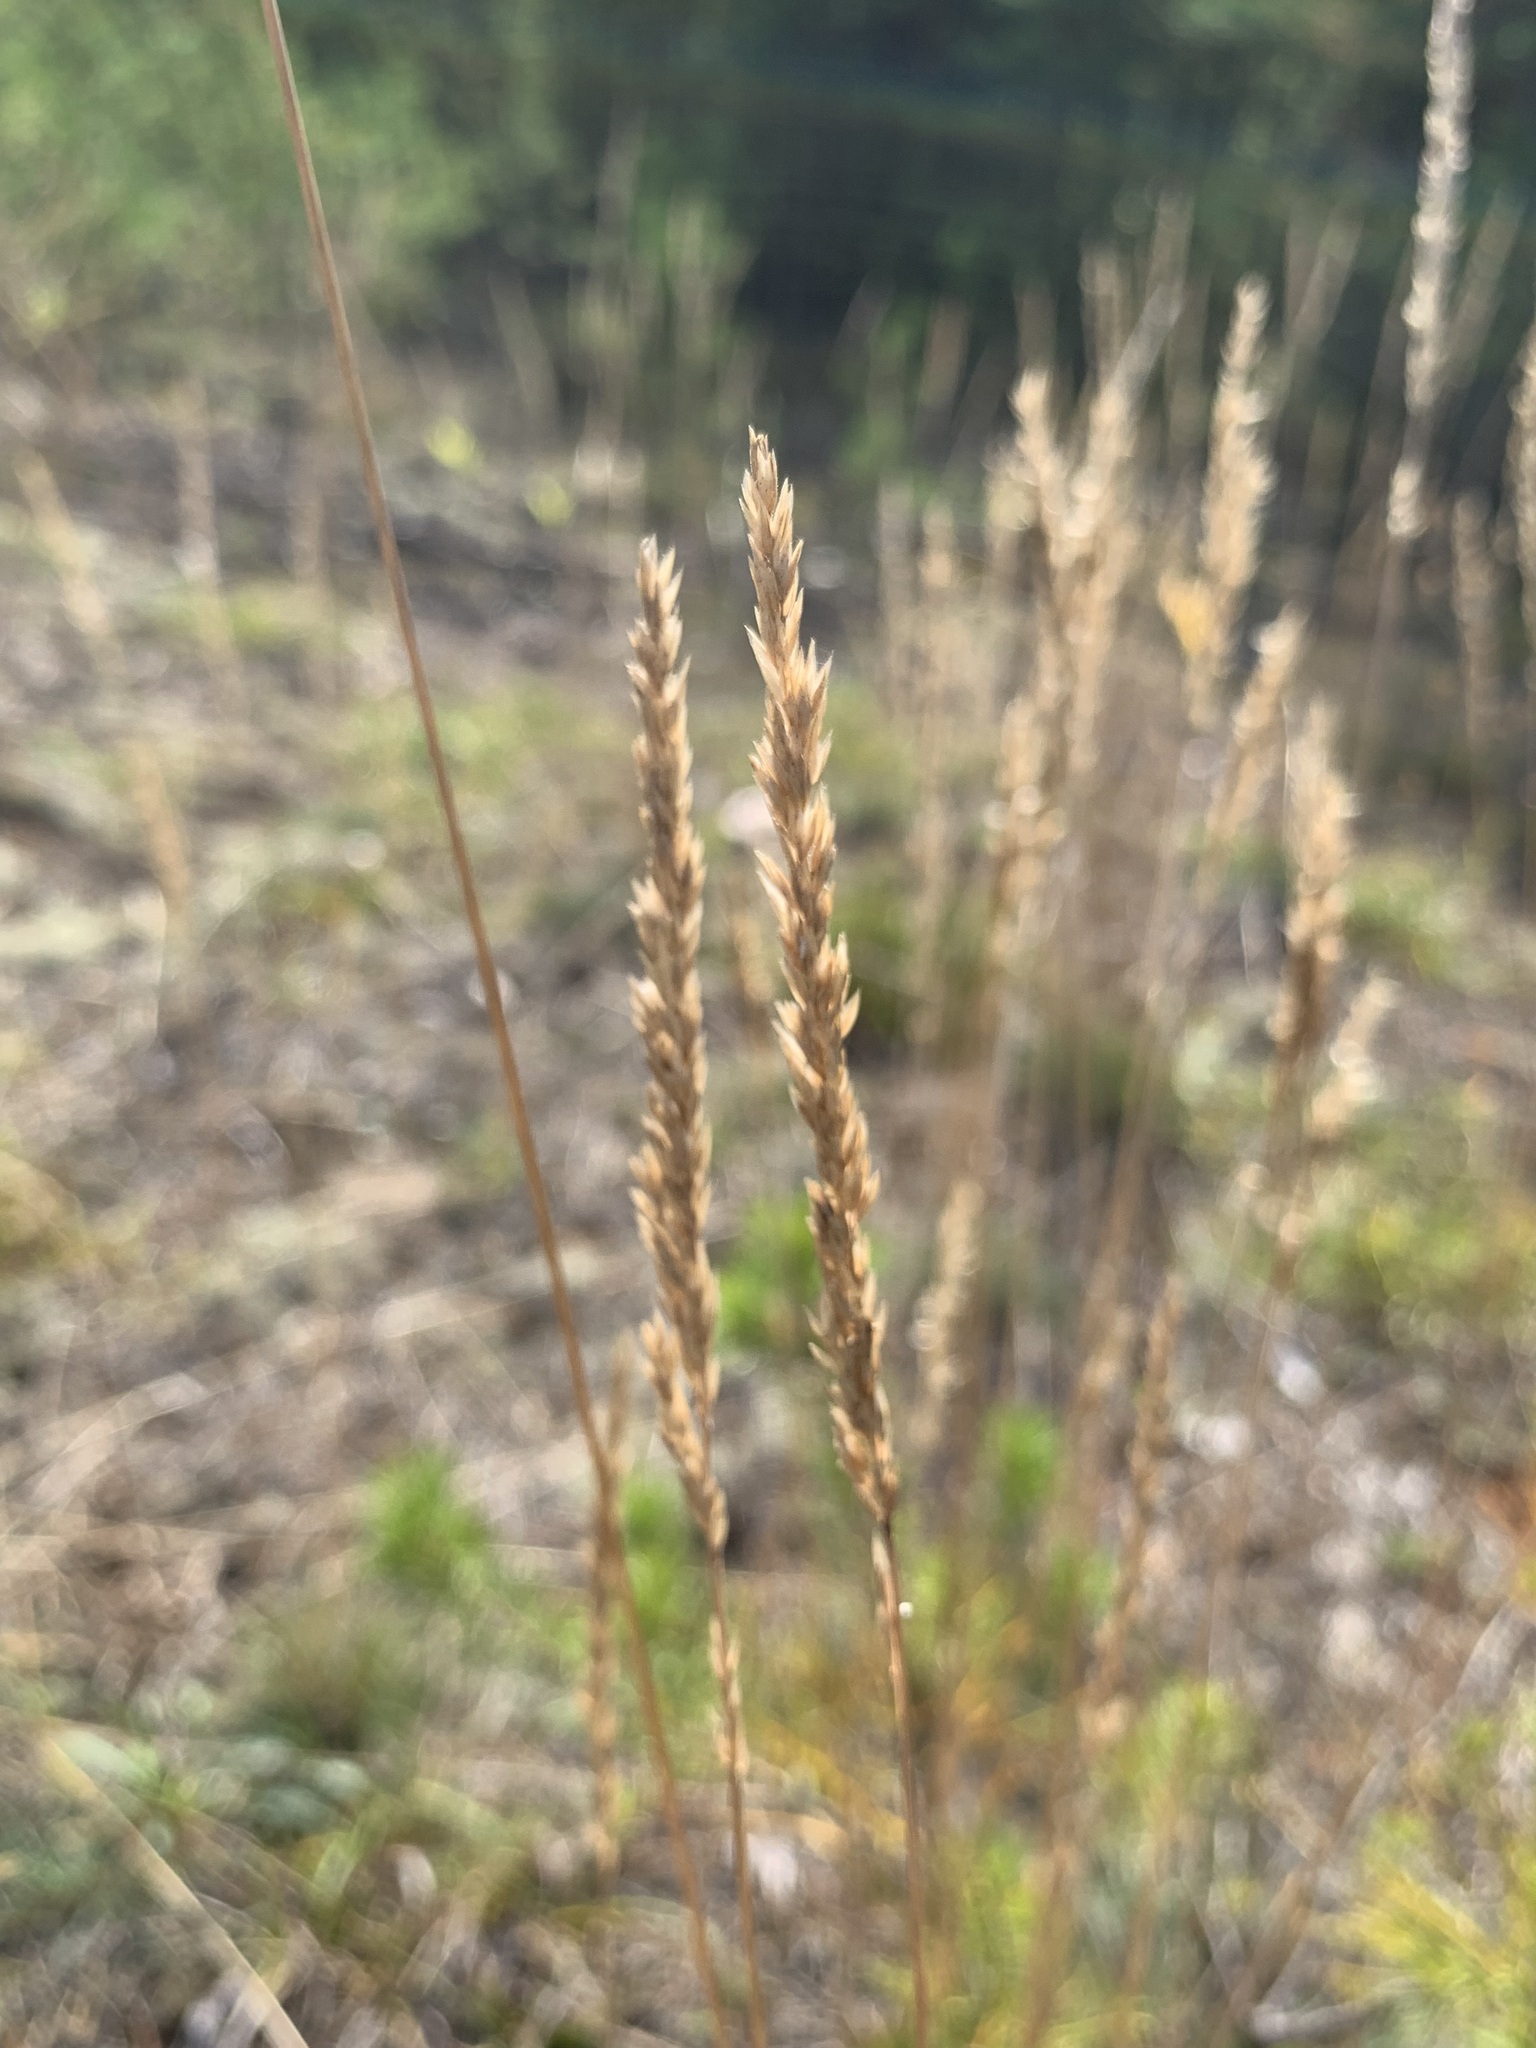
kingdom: Plantae
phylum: Tracheophyta
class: Liliopsida
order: Poales
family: Poaceae
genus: Koeleria
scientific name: Koeleria glauca
